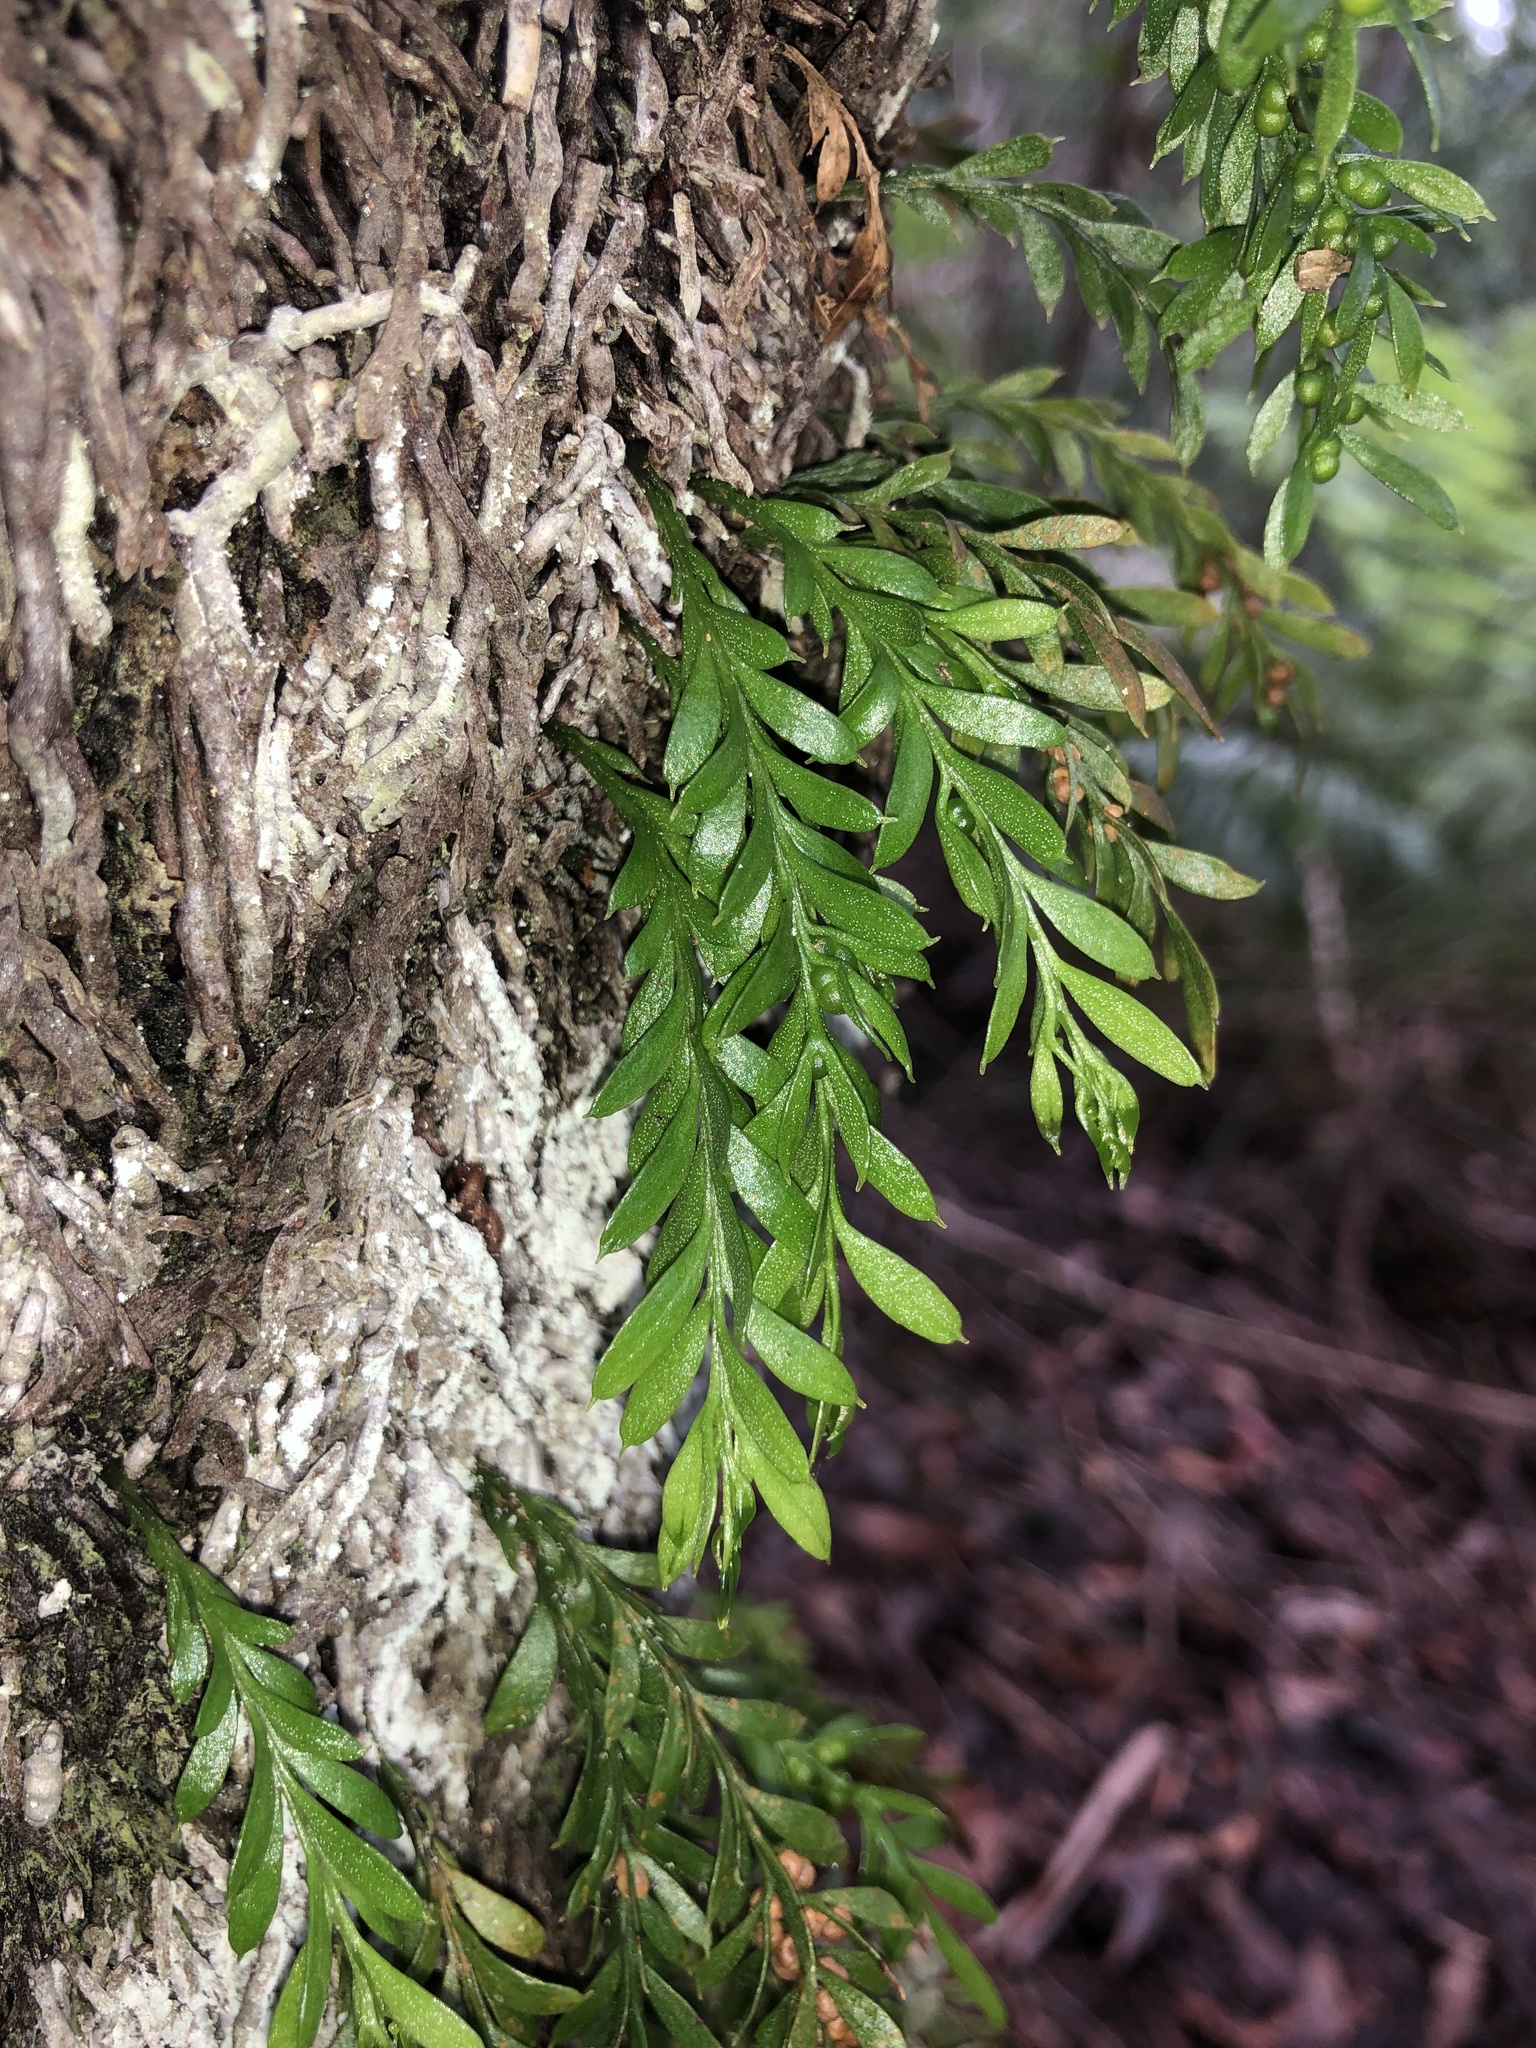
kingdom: Plantae
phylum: Tracheophyta
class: Polypodiopsida
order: Psilotales
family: Psilotaceae
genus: Tmesipteris
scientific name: Tmesipteris ovata
